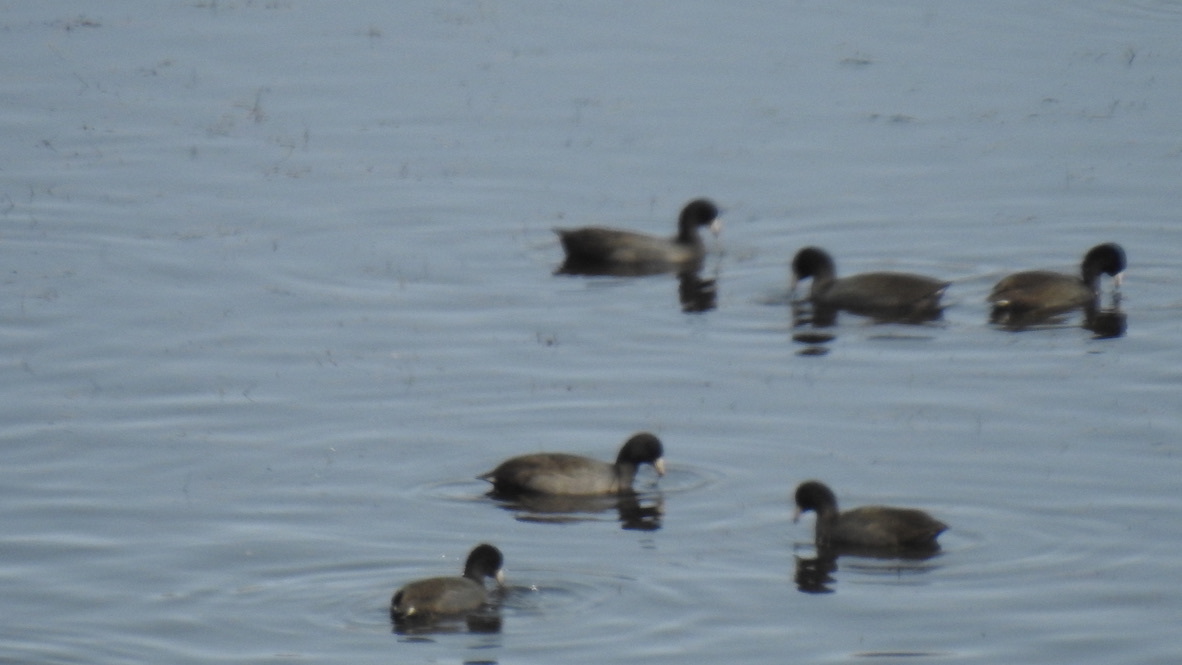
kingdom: Animalia
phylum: Chordata
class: Aves
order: Gruiformes
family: Rallidae
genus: Fulica
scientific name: Fulica americana
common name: American coot
